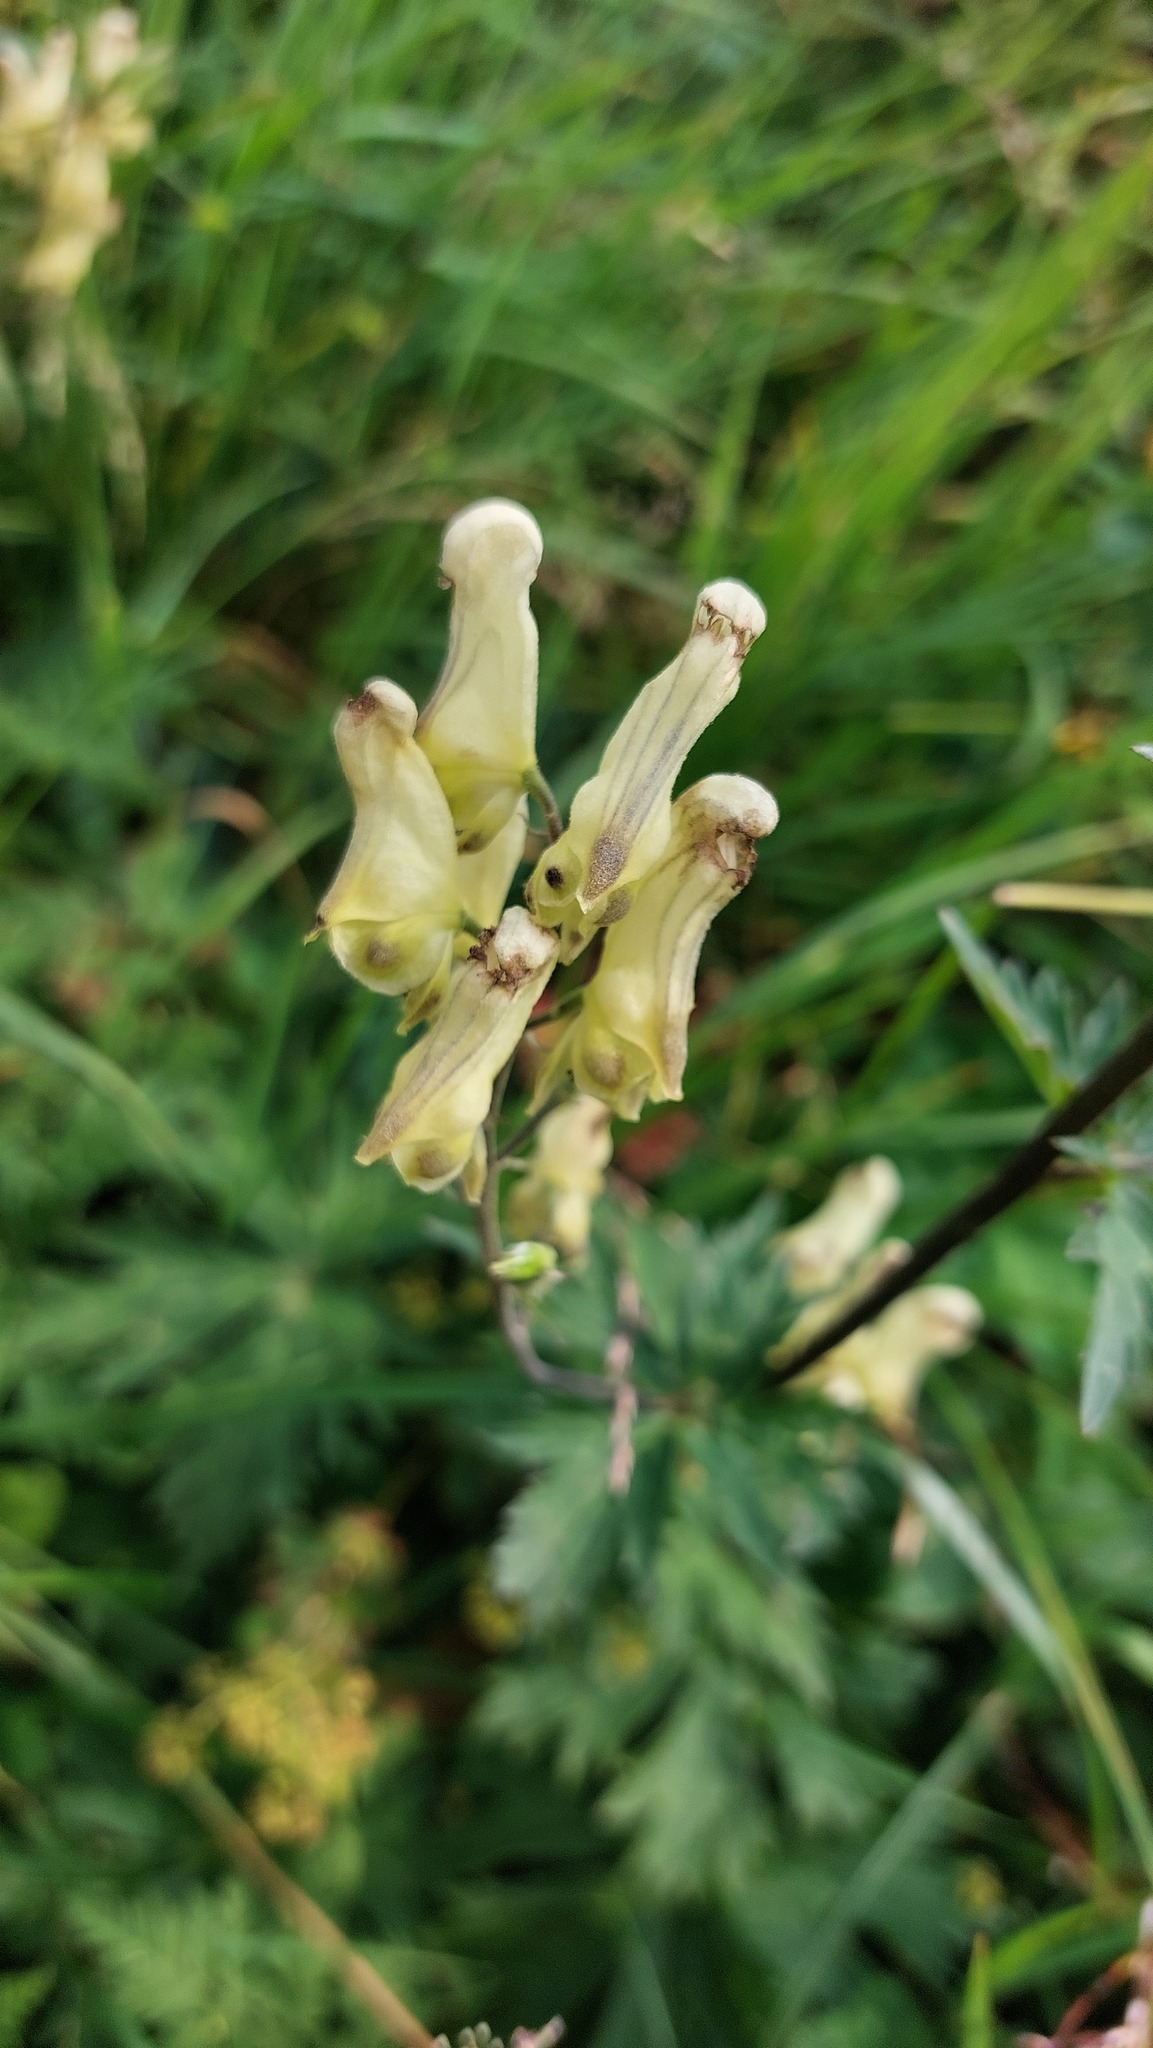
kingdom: Plantae
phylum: Tracheophyta
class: Magnoliopsida
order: Ranunculales
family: Ranunculaceae
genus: Aconitum
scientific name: Aconitum lycoctonum
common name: Wolf's-bane
